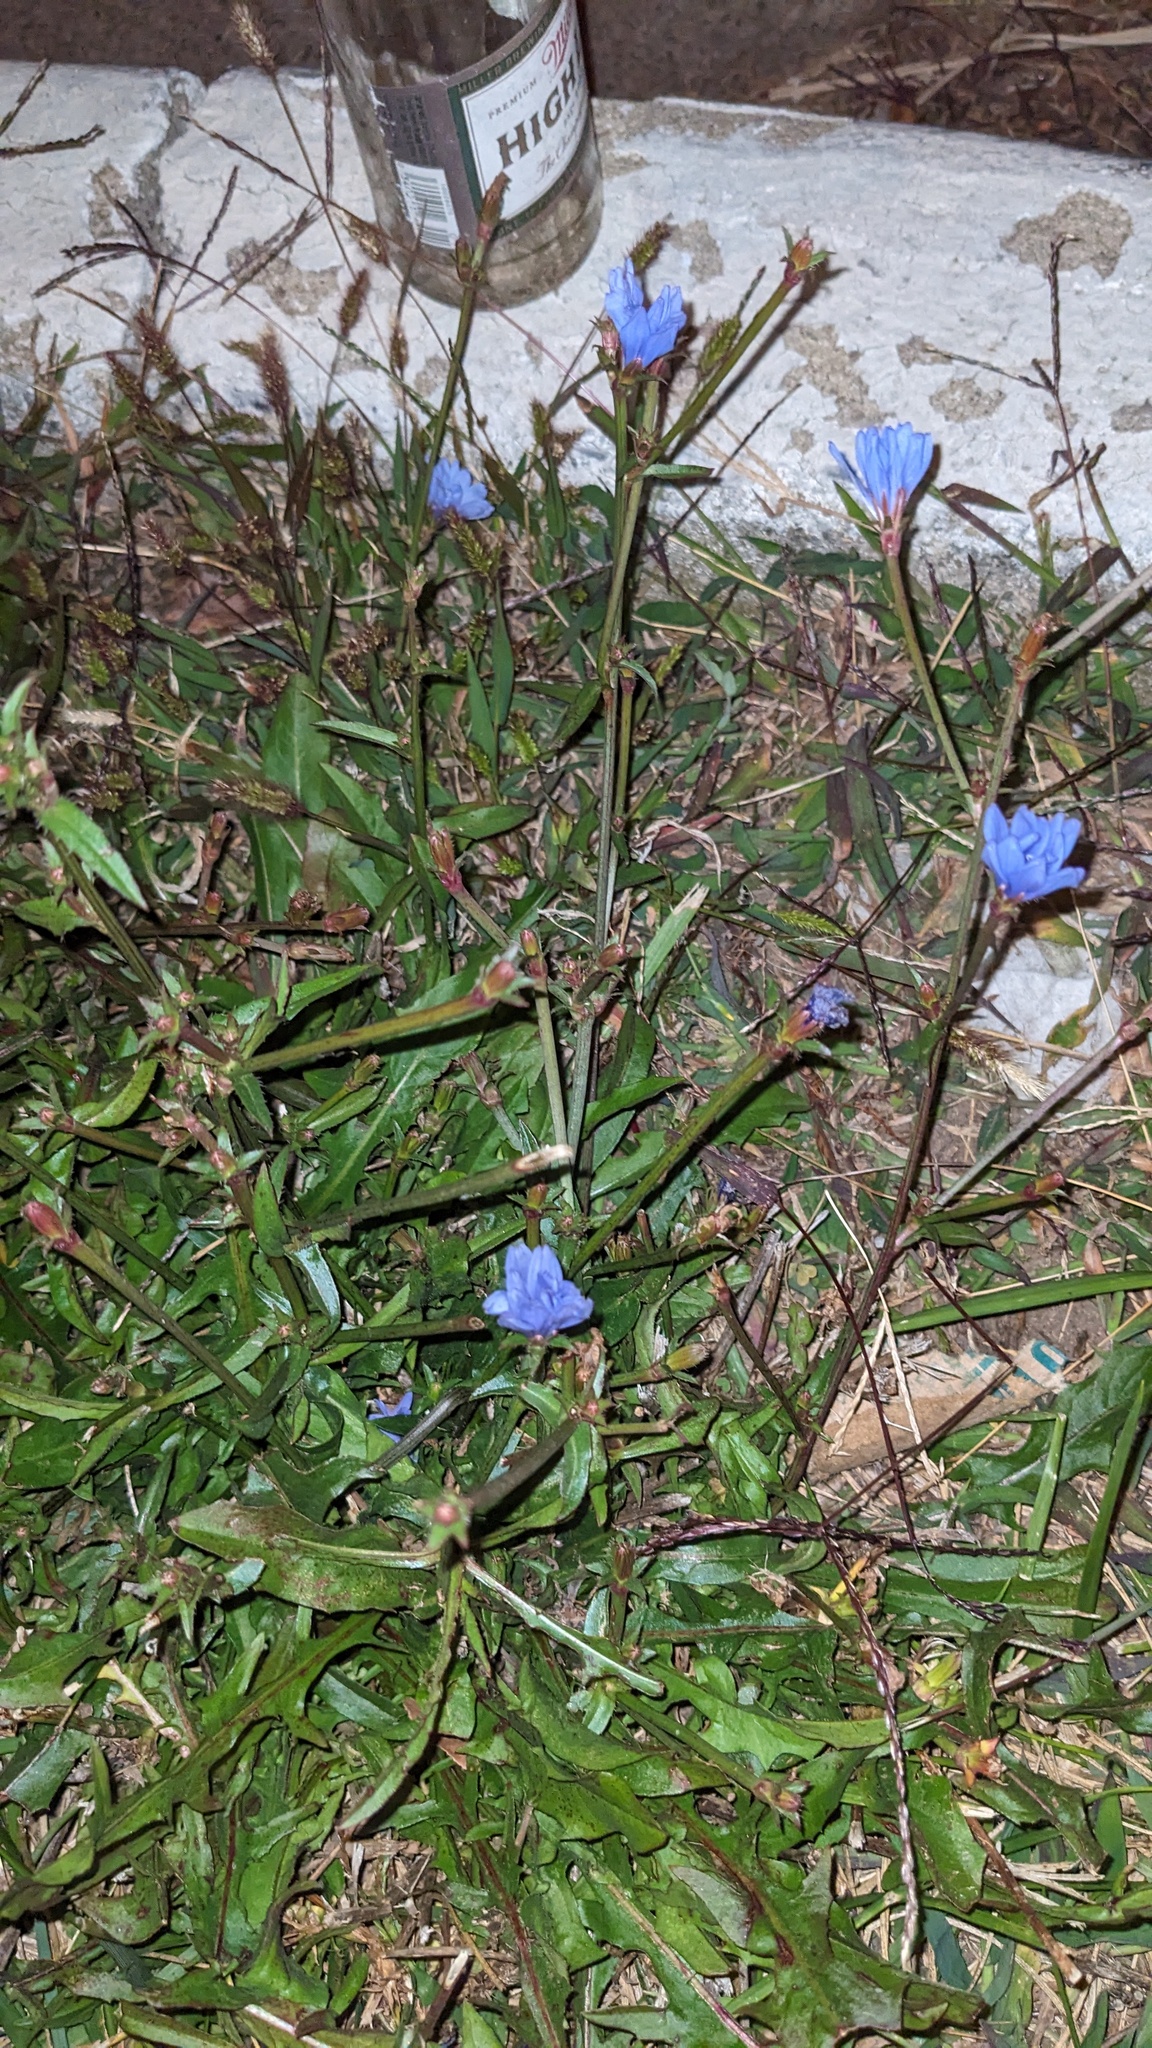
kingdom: Plantae
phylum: Tracheophyta
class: Magnoliopsida
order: Asterales
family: Asteraceae
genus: Cichorium
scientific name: Cichorium intybus
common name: Chicory
